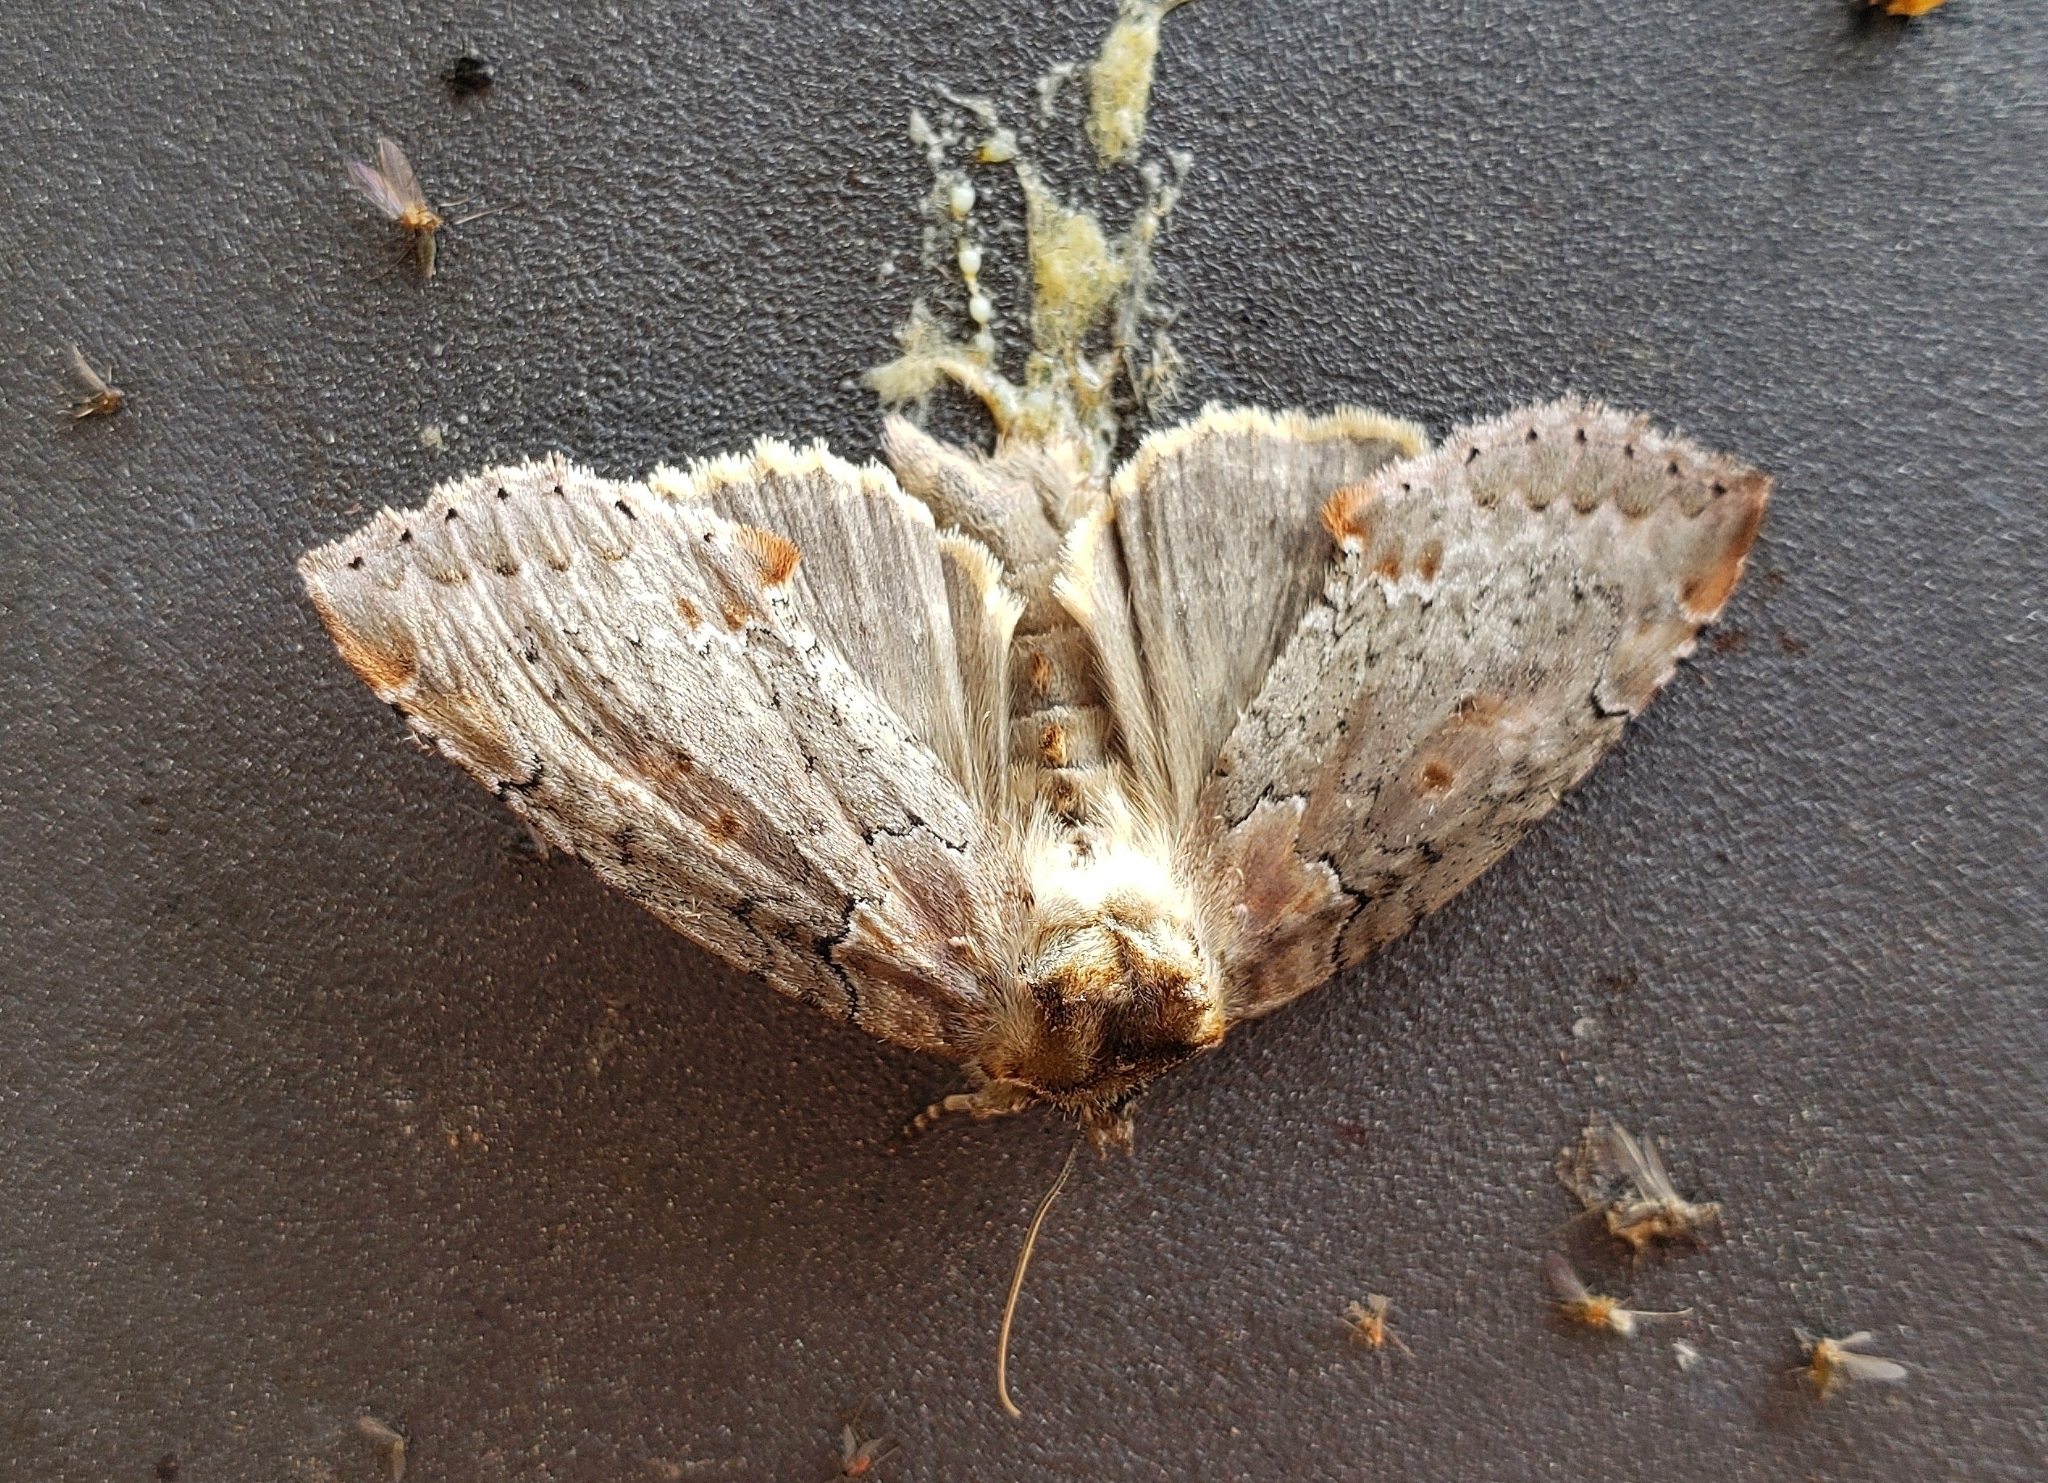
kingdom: Animalia
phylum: Arthropoda
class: Insecta
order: Lepidoptera
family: Drepanidae
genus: Pseudothyatira
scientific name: Pseudothyatira cymatophoroides
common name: Tufted thyatirid moth
